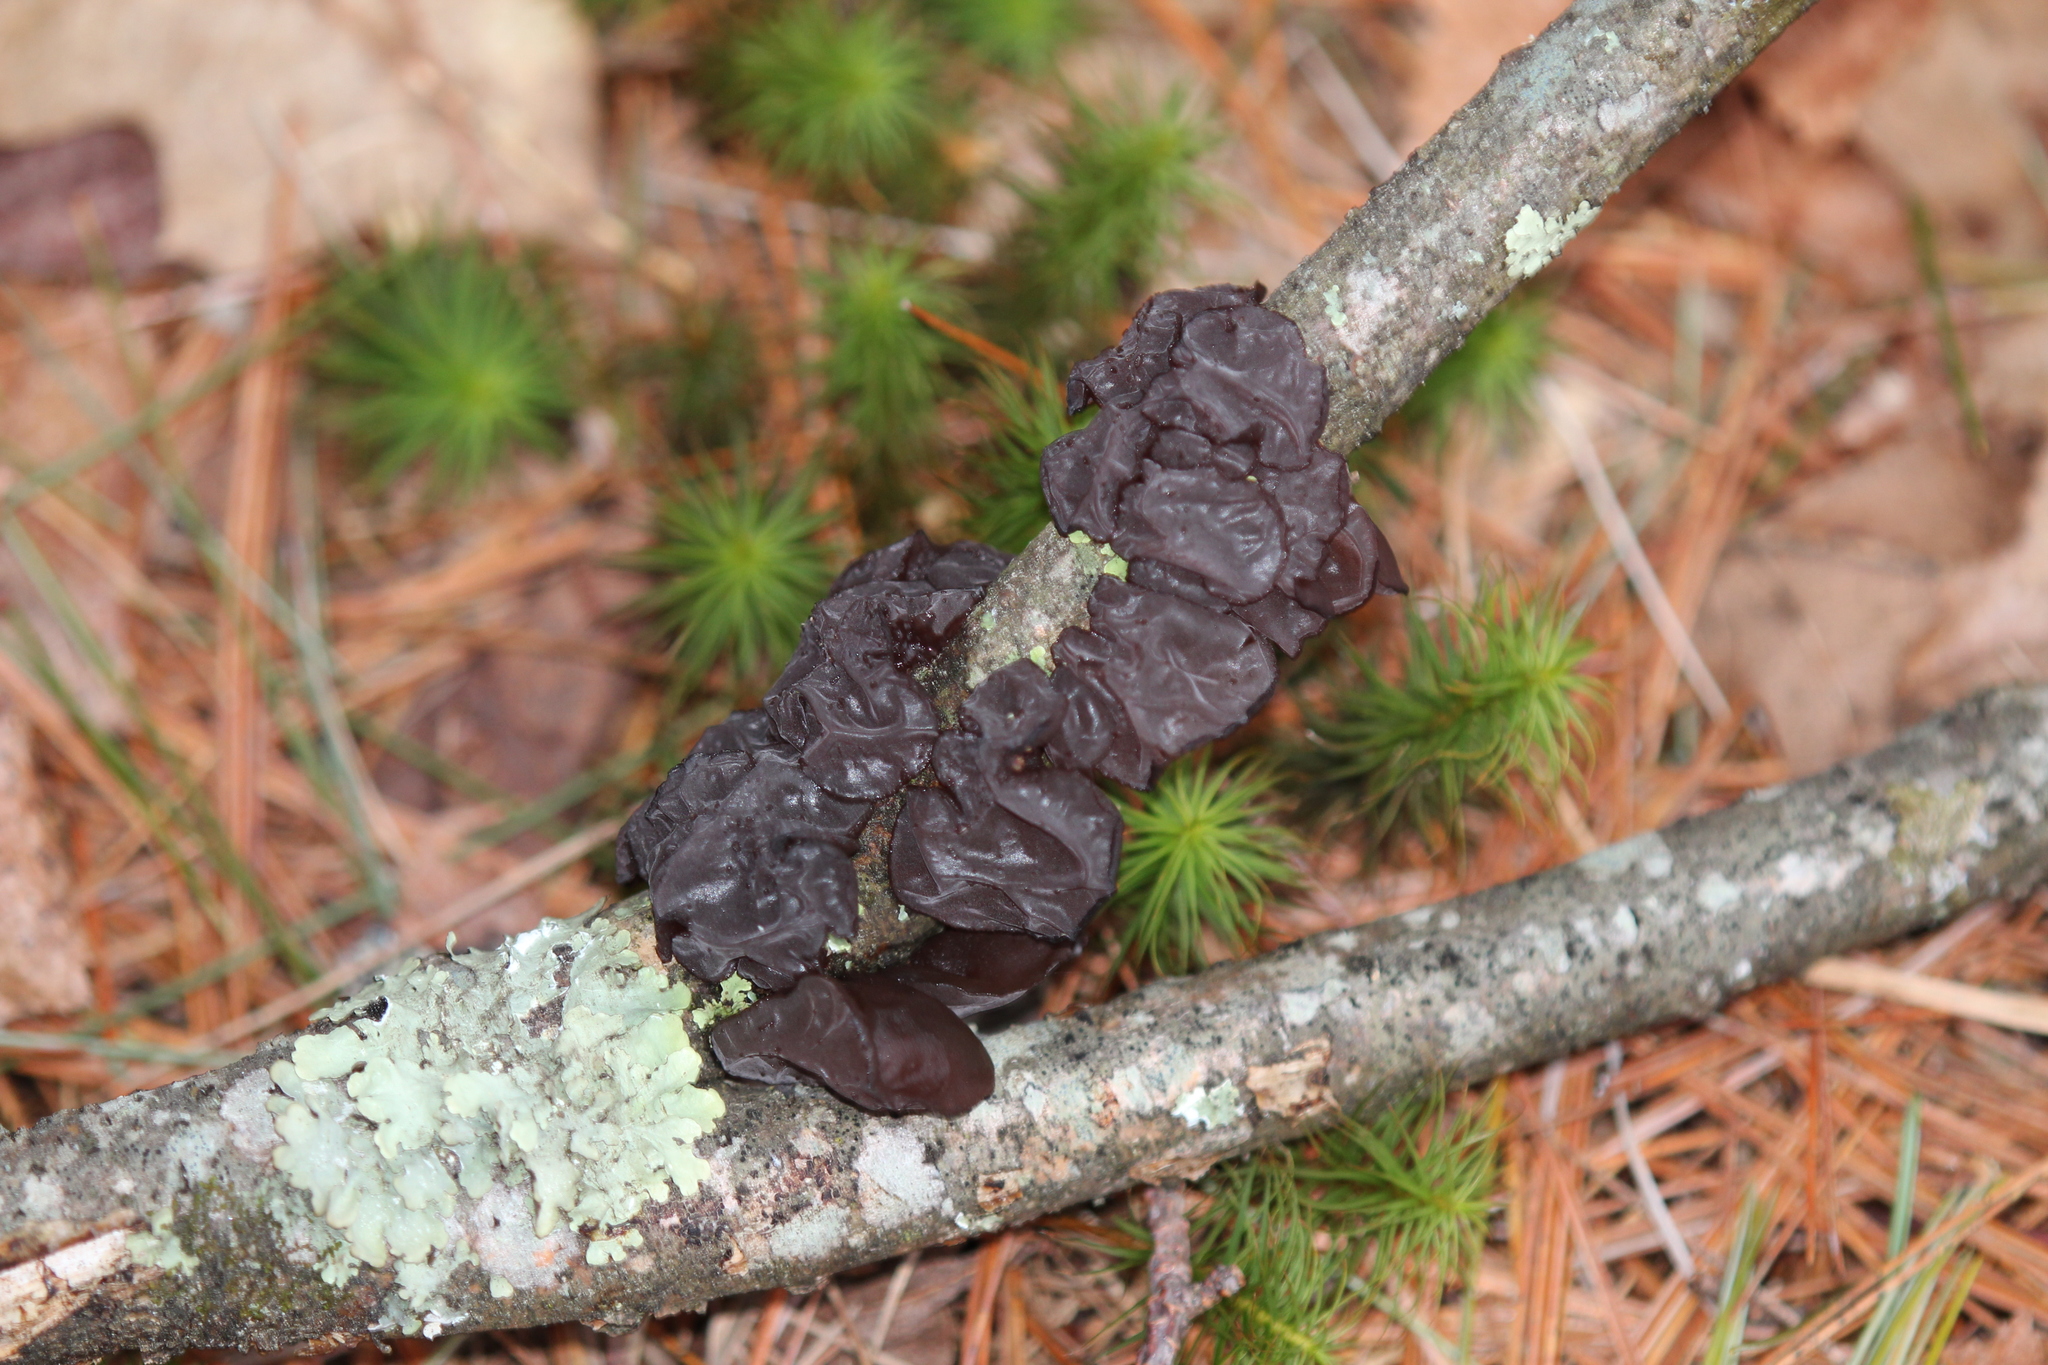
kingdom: Fungi
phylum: Basidiomycota
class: Agaricomycetes
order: Auriculariales
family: Auriculariaceae
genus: Exidia
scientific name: Exidia
